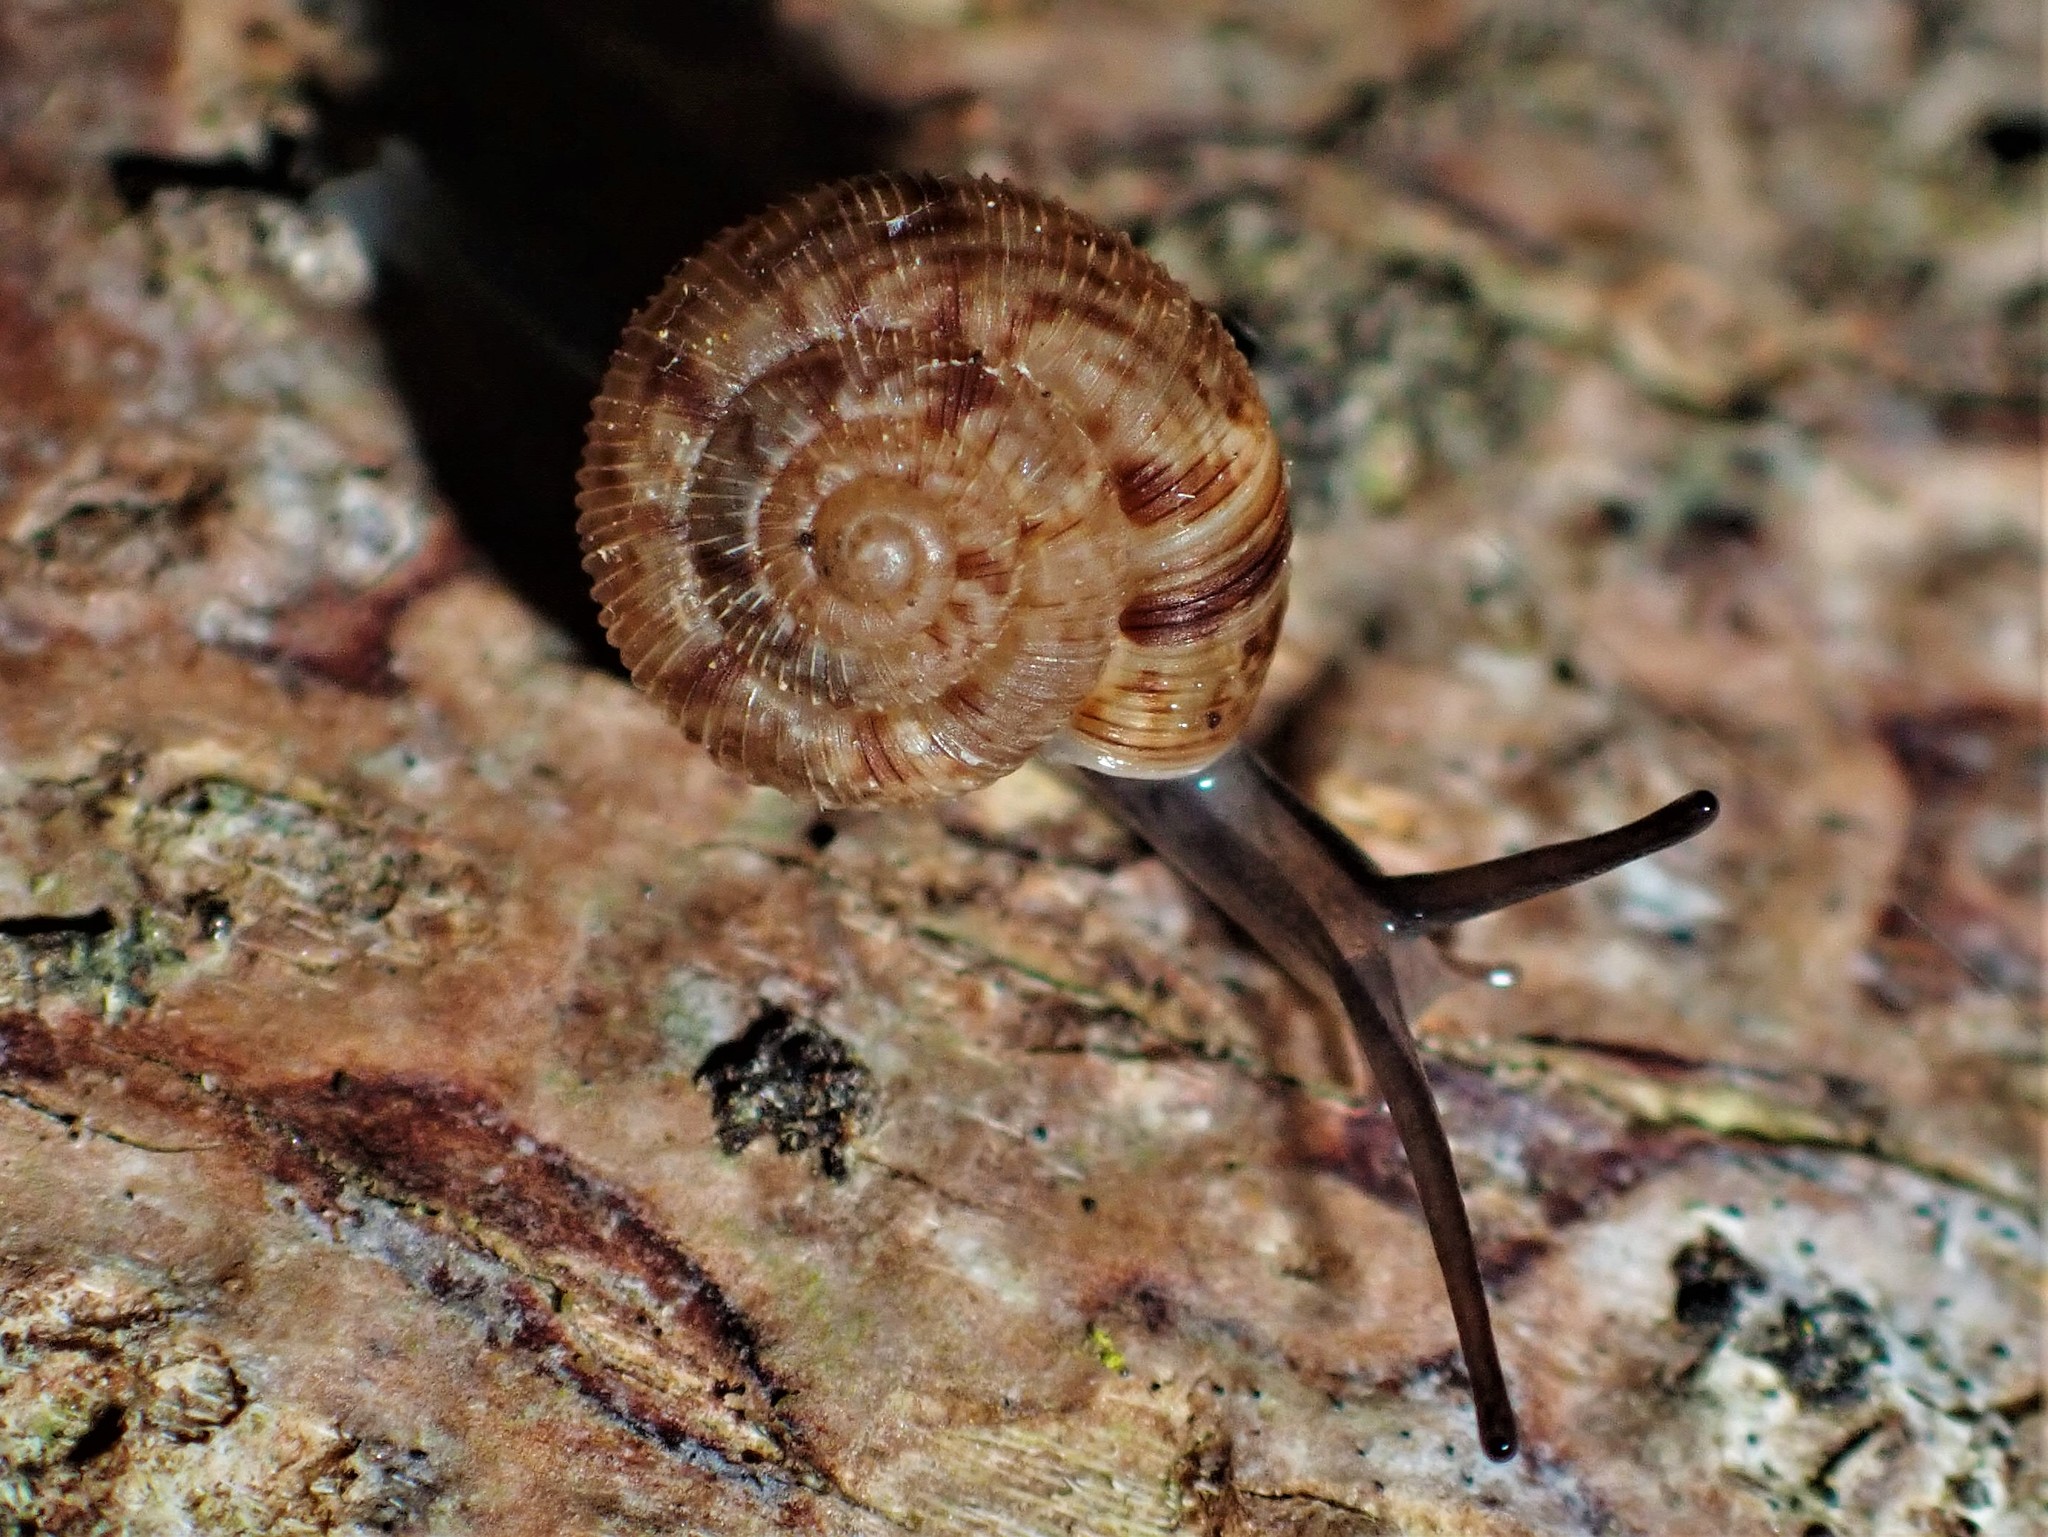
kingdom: Animalia
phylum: Mollusca
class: Gastropoda
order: Stylommatophora
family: Charopidae
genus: Phenacohelix
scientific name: Phenacohelix ponsonbyi
